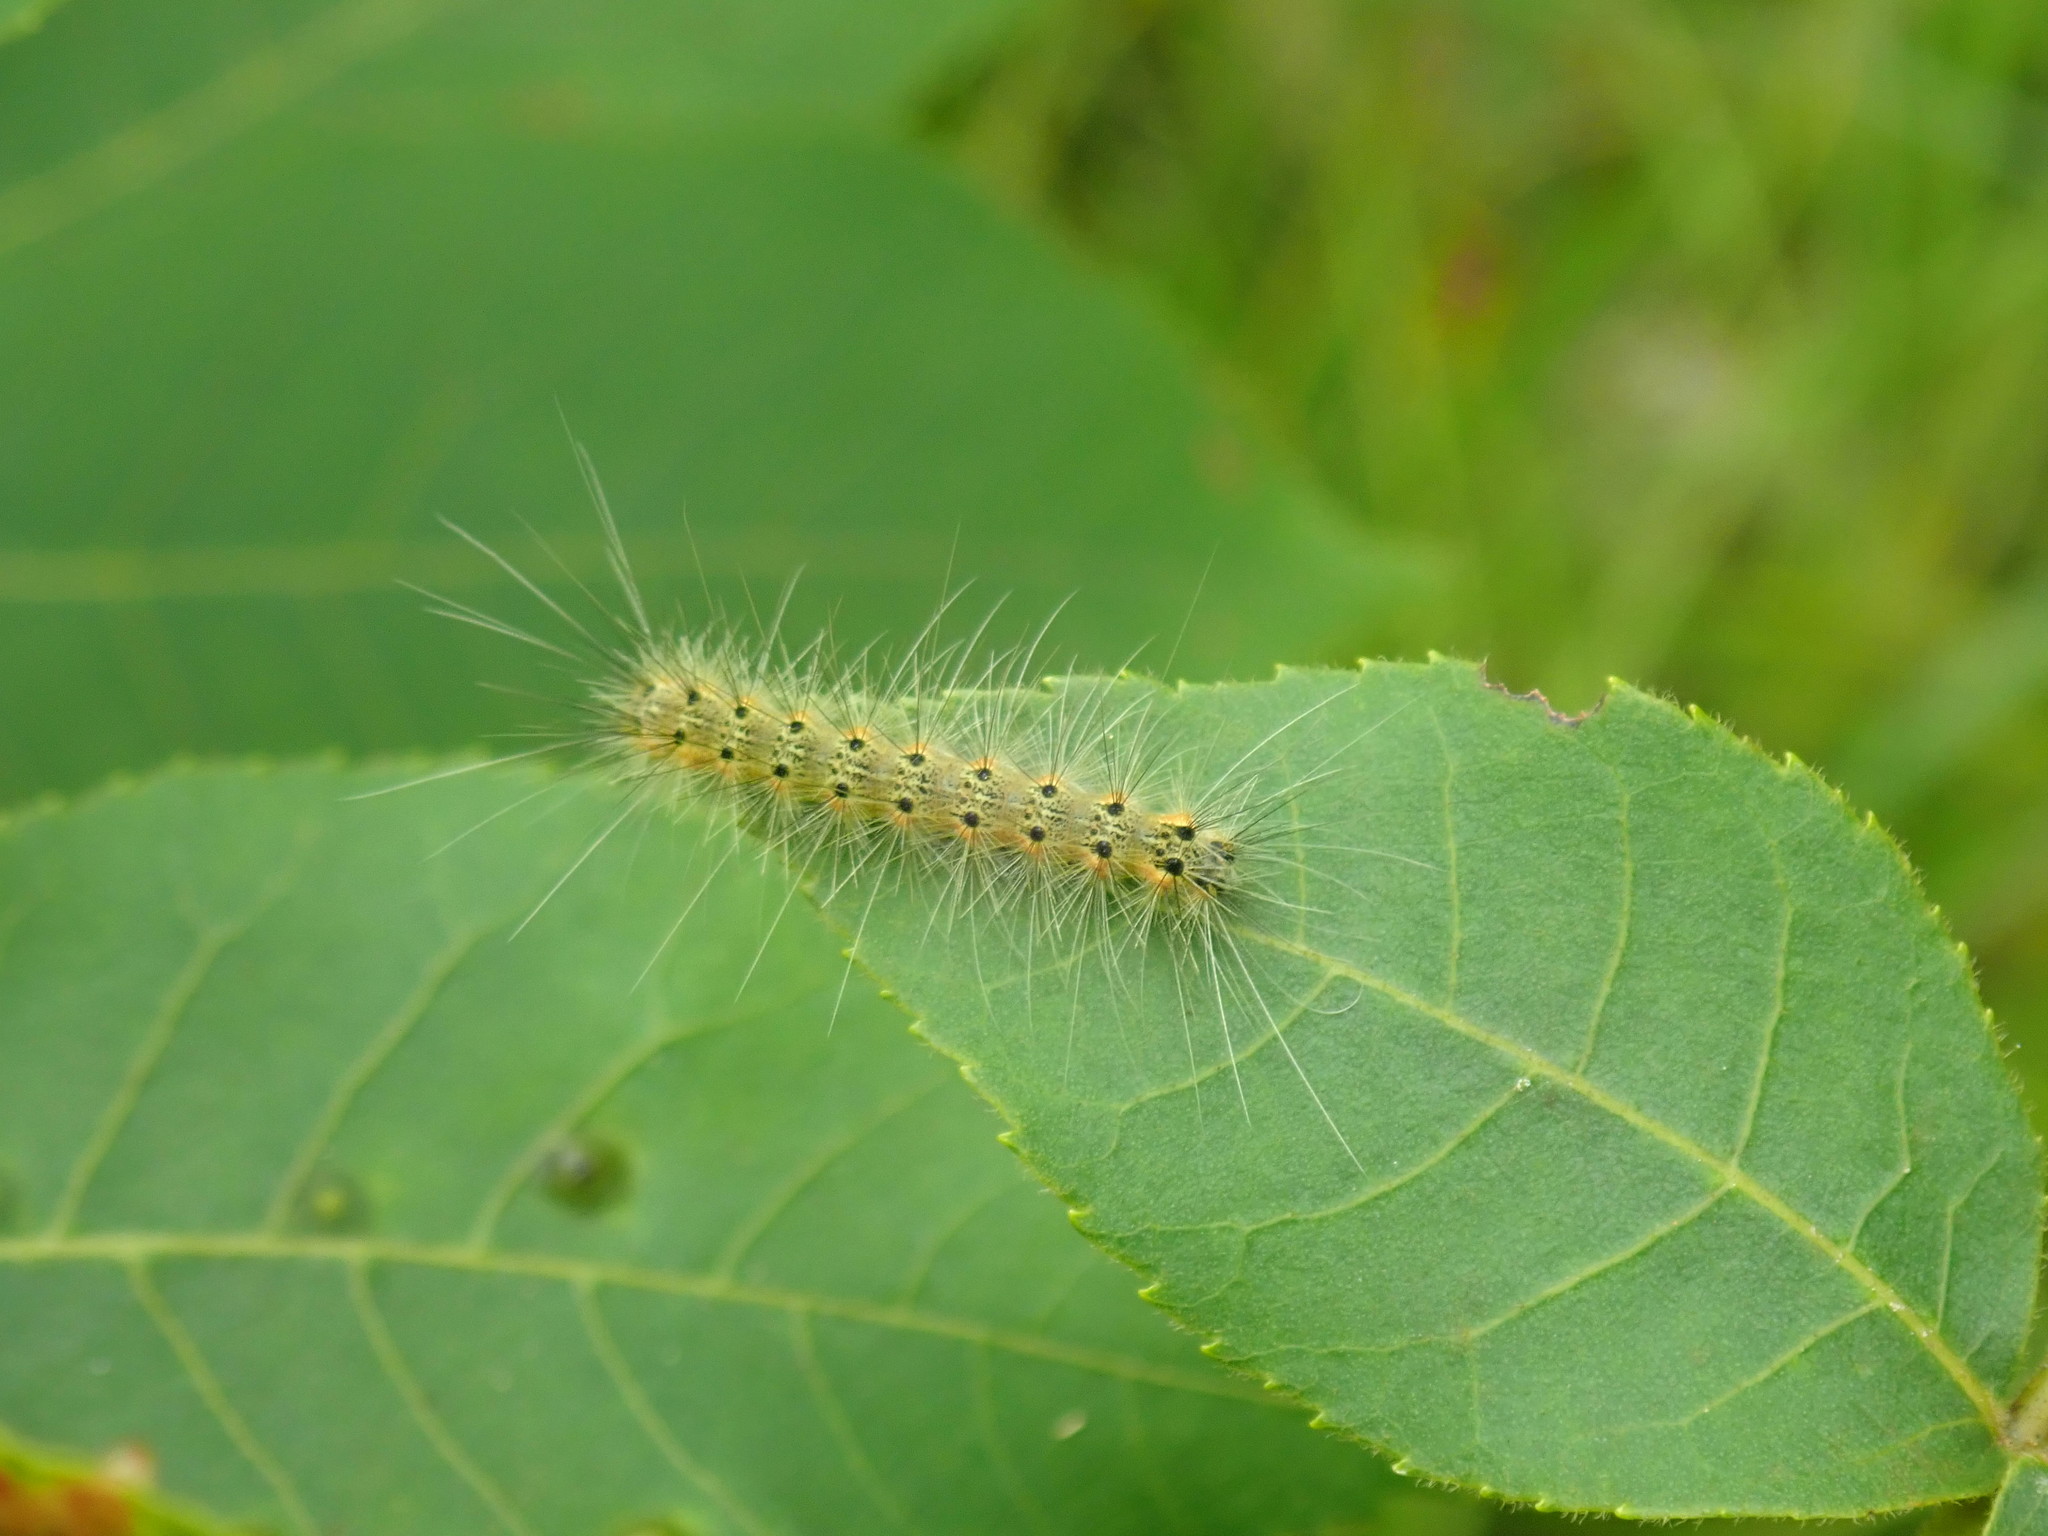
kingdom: Animalia
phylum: Arthropoda
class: Insecta
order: Lepidoptera
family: Erebidae
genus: Hyphantria
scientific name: Hyphantria cunea
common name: American white moth
